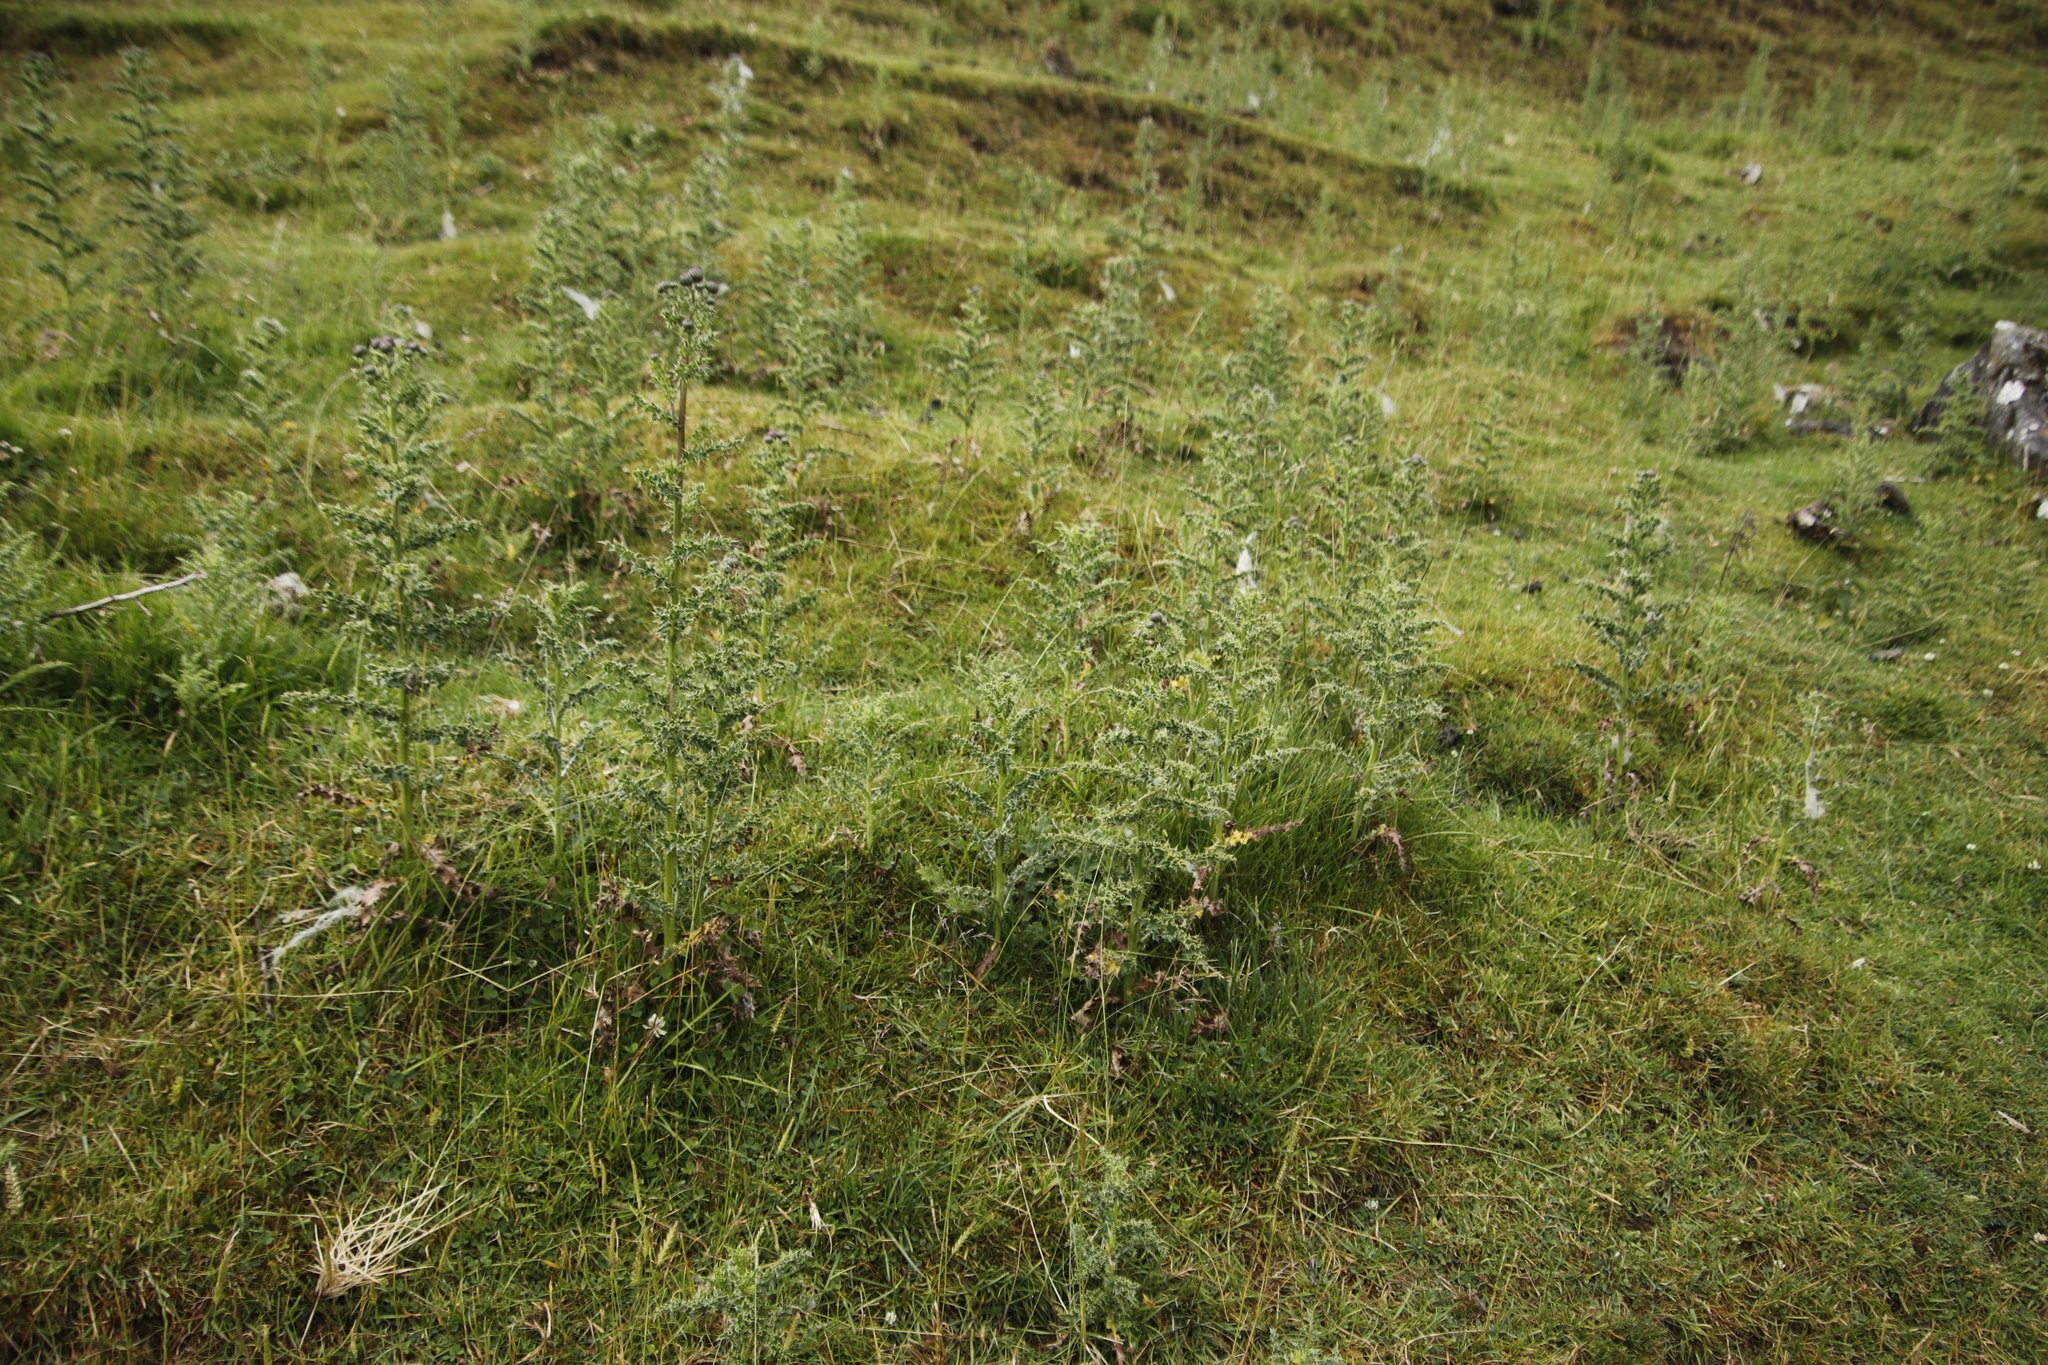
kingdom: Plantae
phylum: Tracheophyta
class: Magnoliopsida
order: Asterales
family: Asteraceae
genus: Cirsium
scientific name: Cirsium arvense
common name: Creeping thistle
